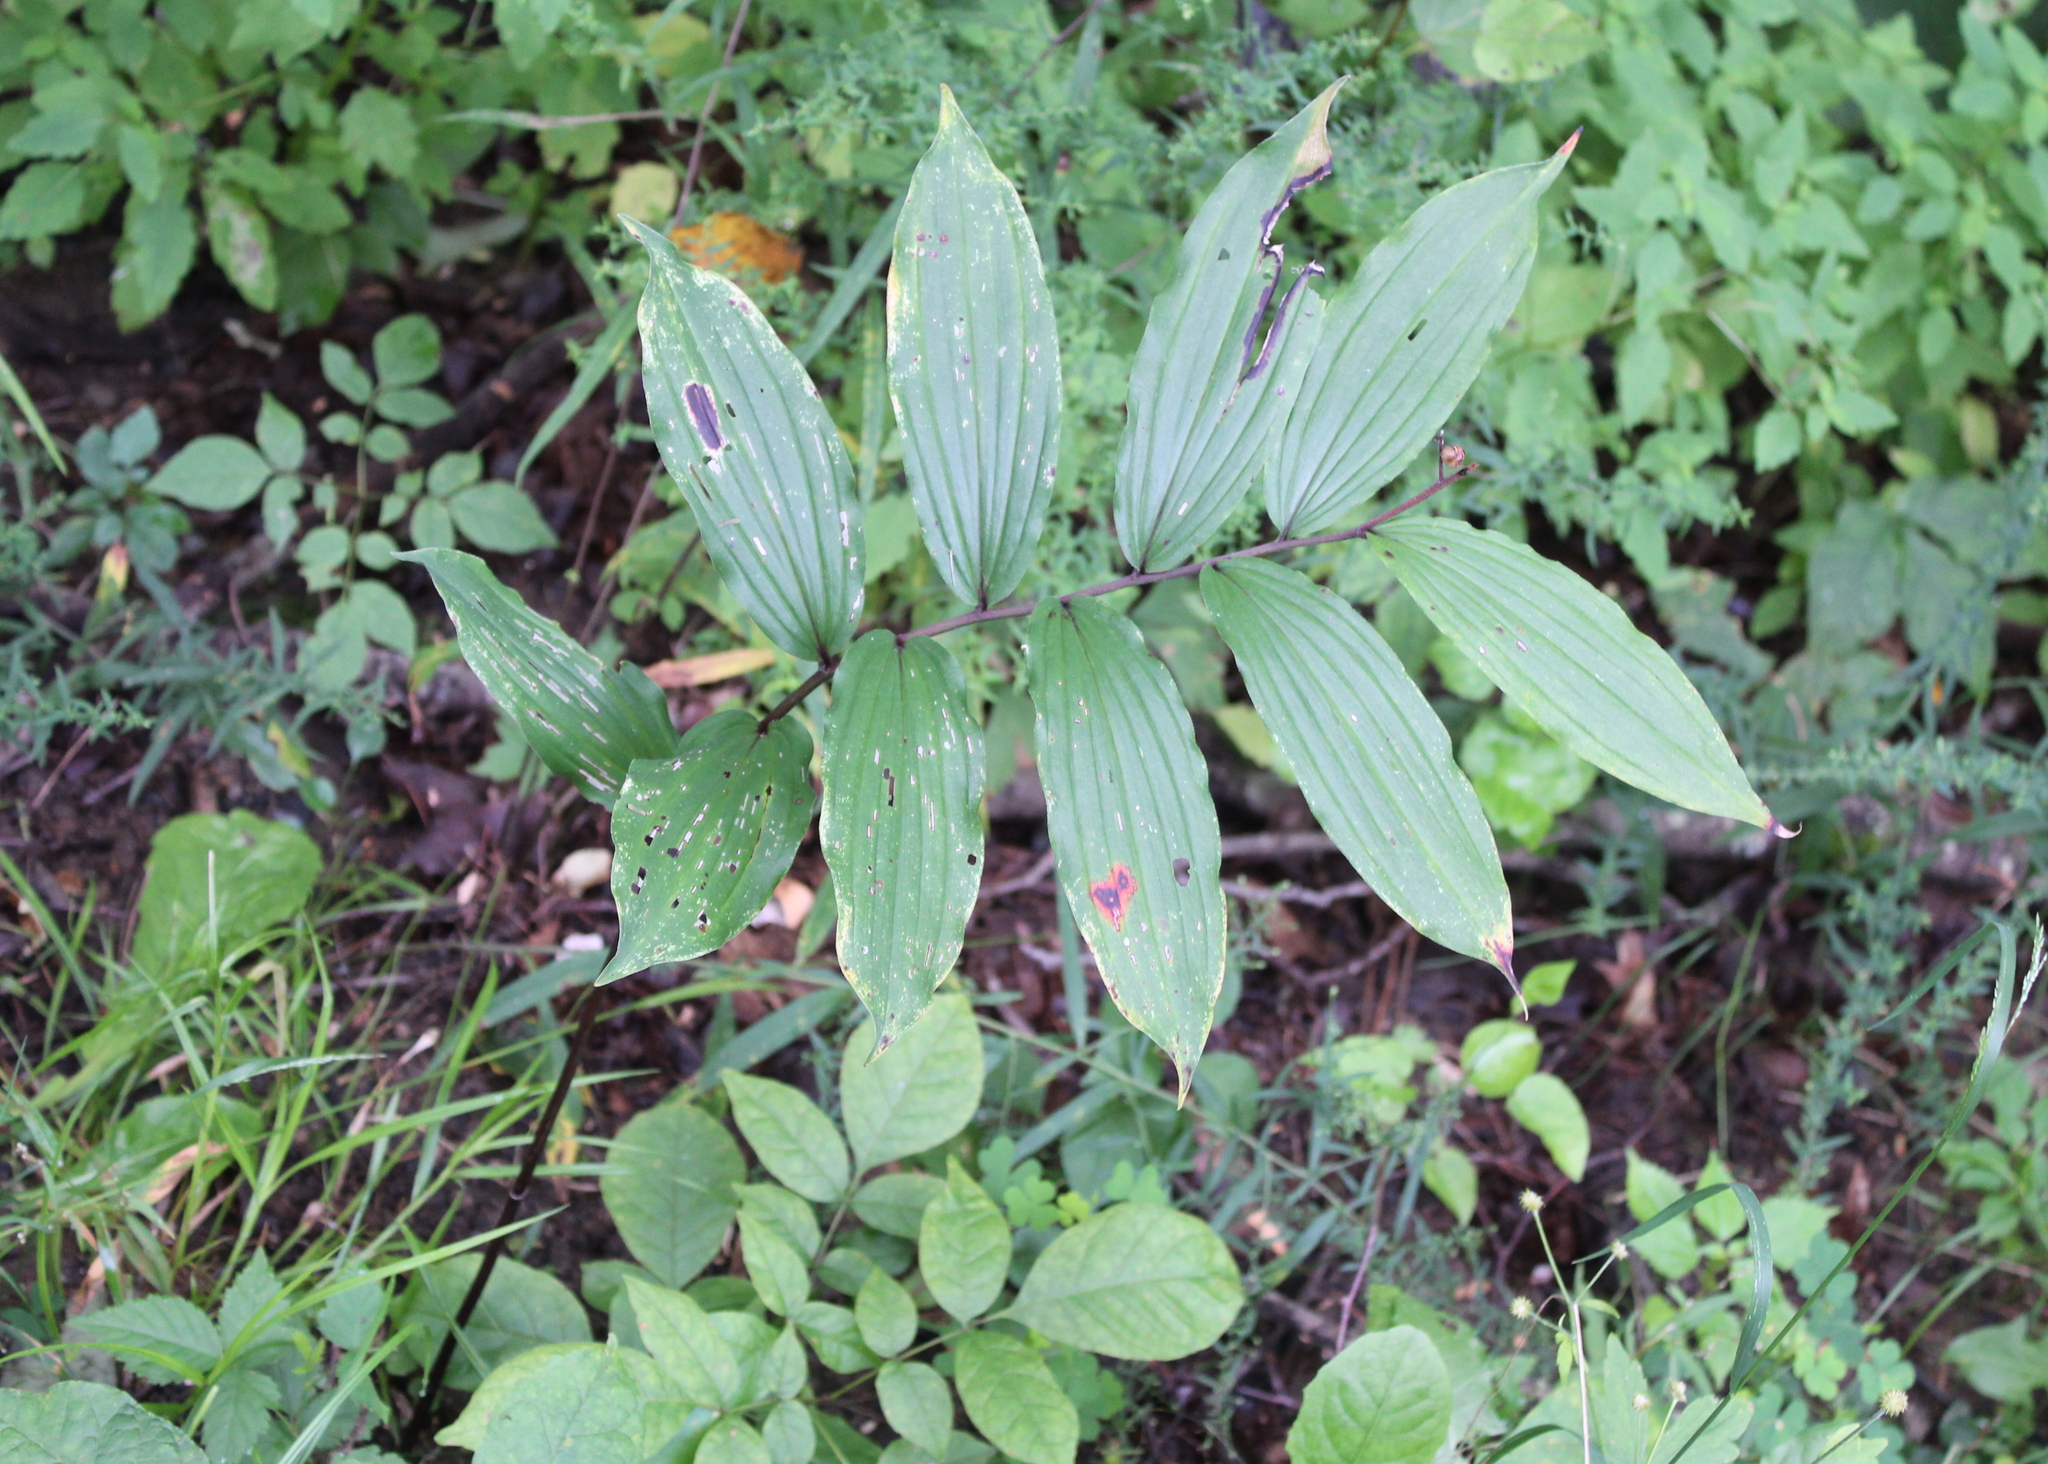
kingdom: Plantae
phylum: Tracheophyta
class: Liliopsida
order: Asparagales
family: Asparagaceae
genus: Maianthemum
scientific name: Maianthemum racemosum
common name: False spikenard
